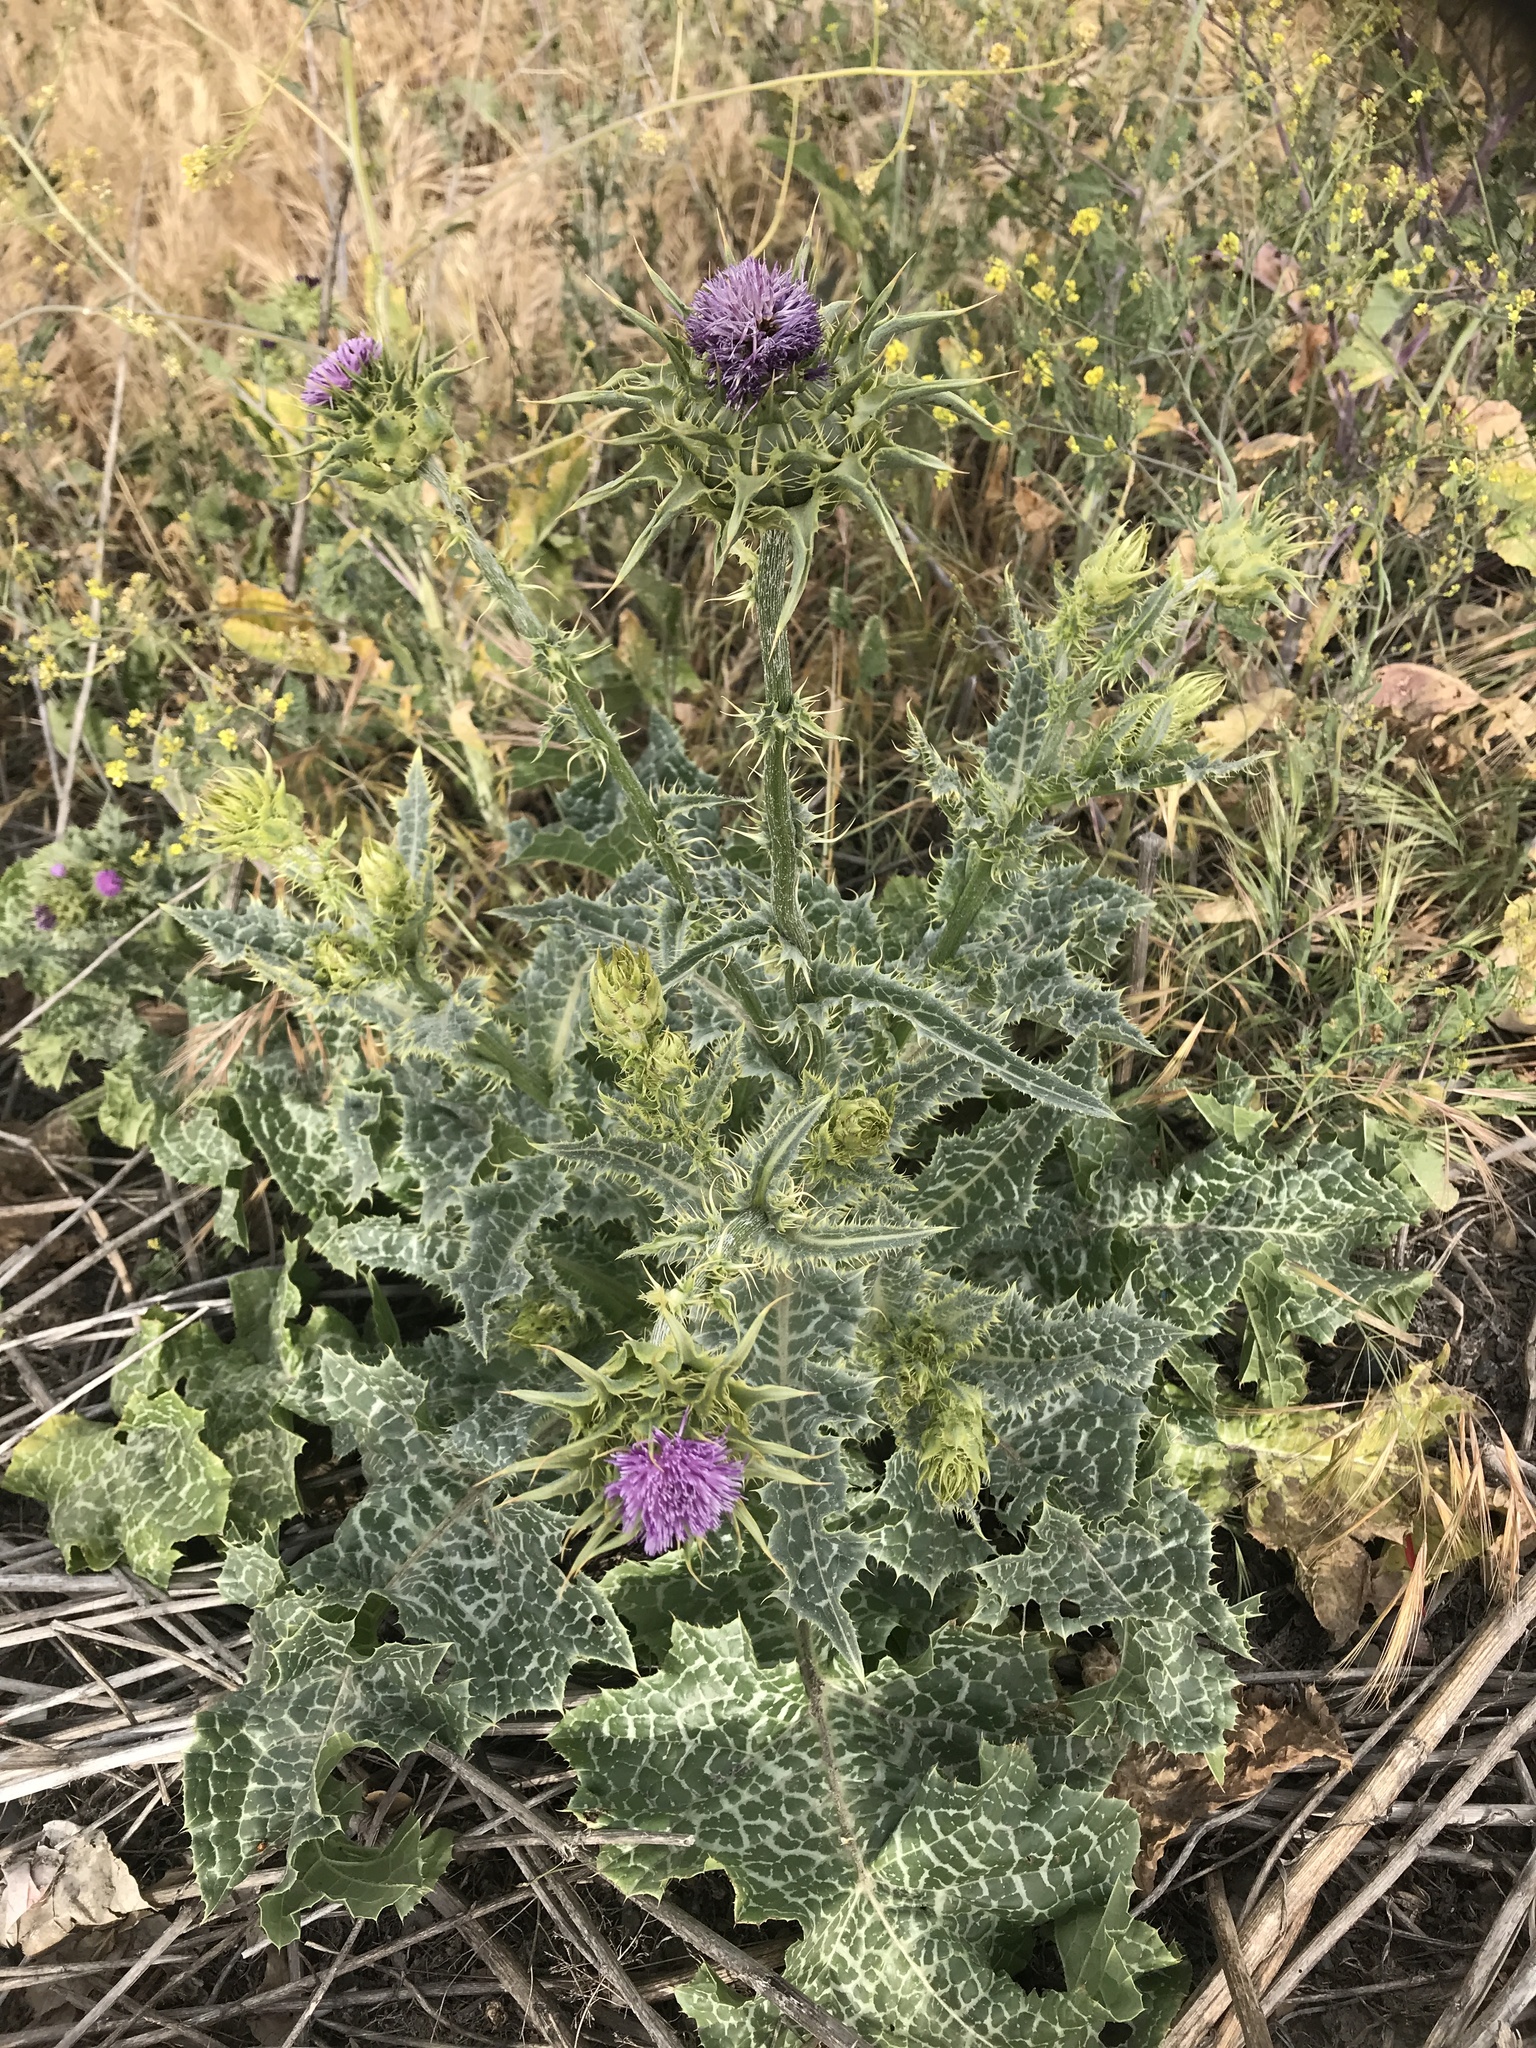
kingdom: Plantae
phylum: Tracheophyta
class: Magnoliopsida
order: Asterales
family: Asteraceae
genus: Silybum
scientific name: Silybum marianum
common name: Milk thistle
